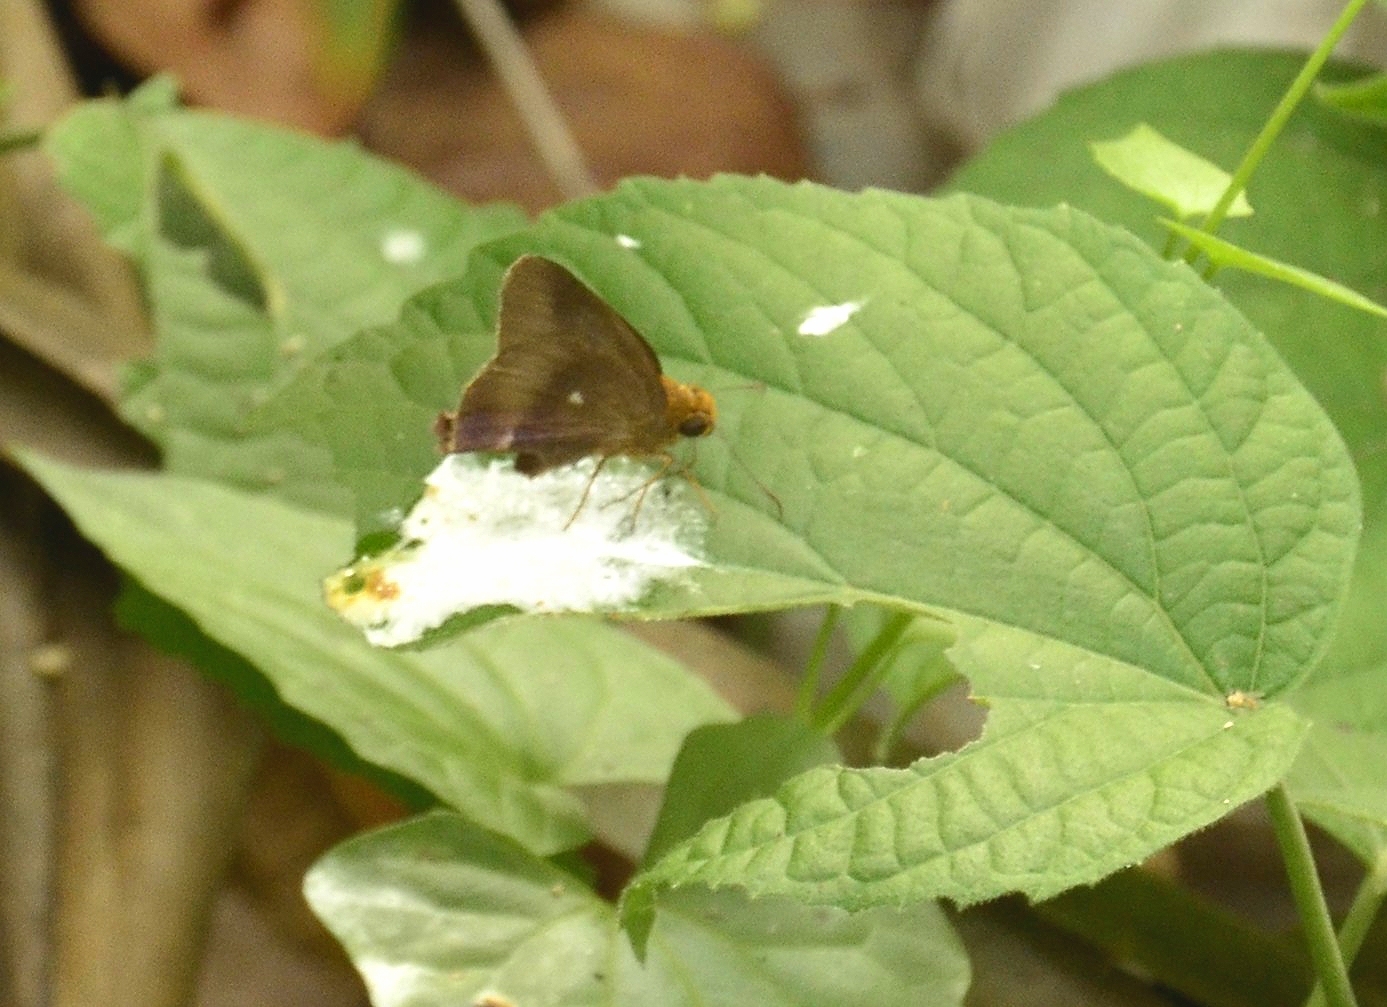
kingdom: Animalia
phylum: Arthropoda
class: Insecta
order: Lepidoptera
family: Hesperiidae
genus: Hasora
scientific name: Hasora badra
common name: Common awl
